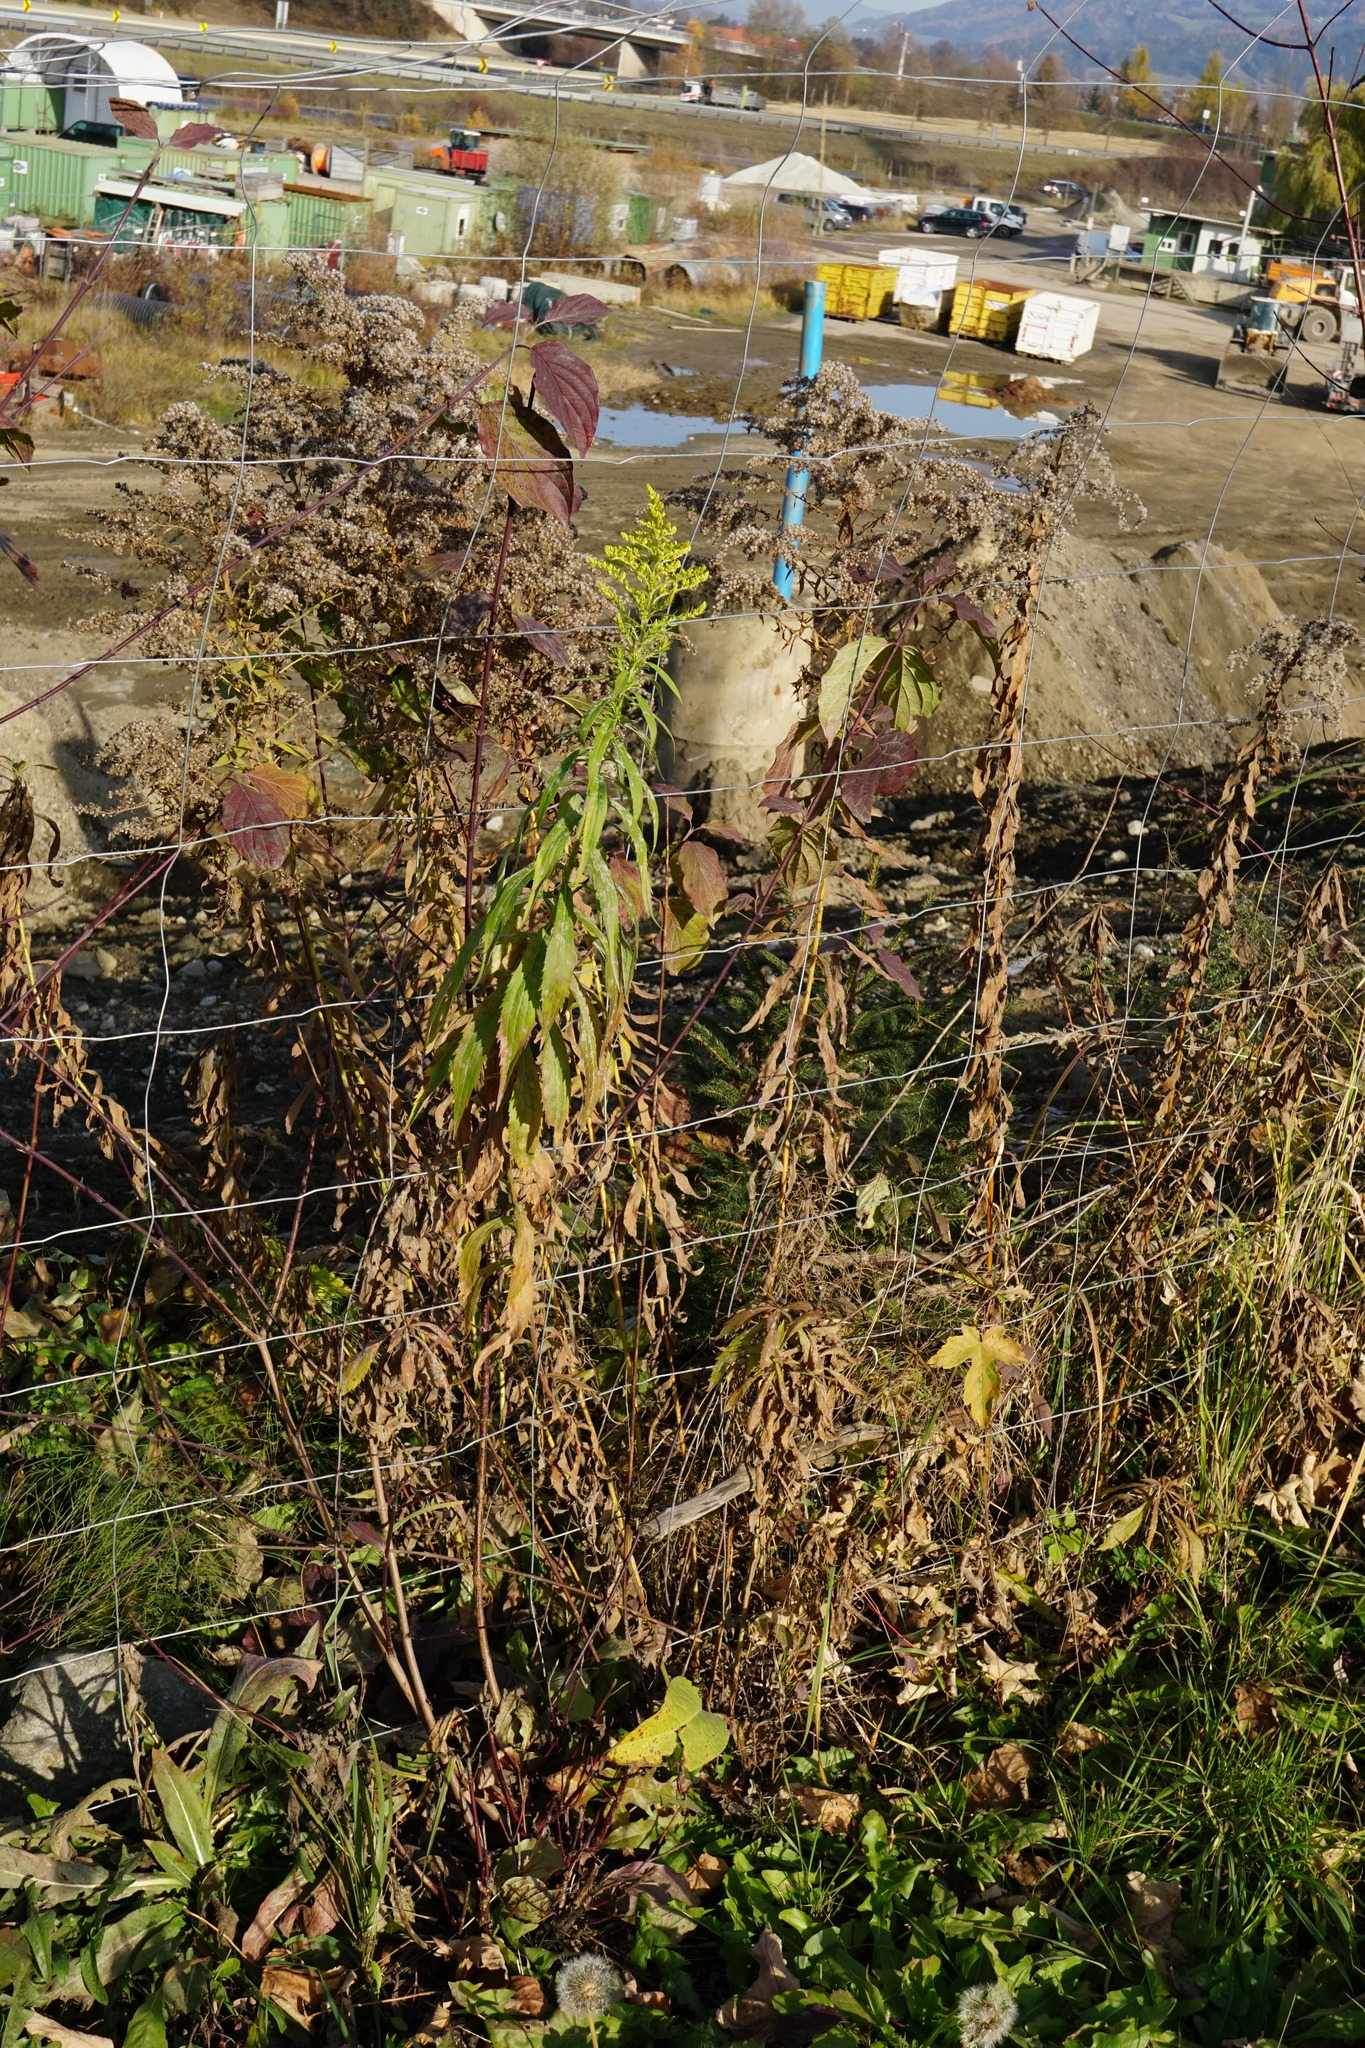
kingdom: Plantae
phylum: Tracheophyta
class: Magnoliopsida
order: Asterales
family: Asteraceae
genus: Solidago
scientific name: Solidago canadensis
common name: Canada goldenrod
